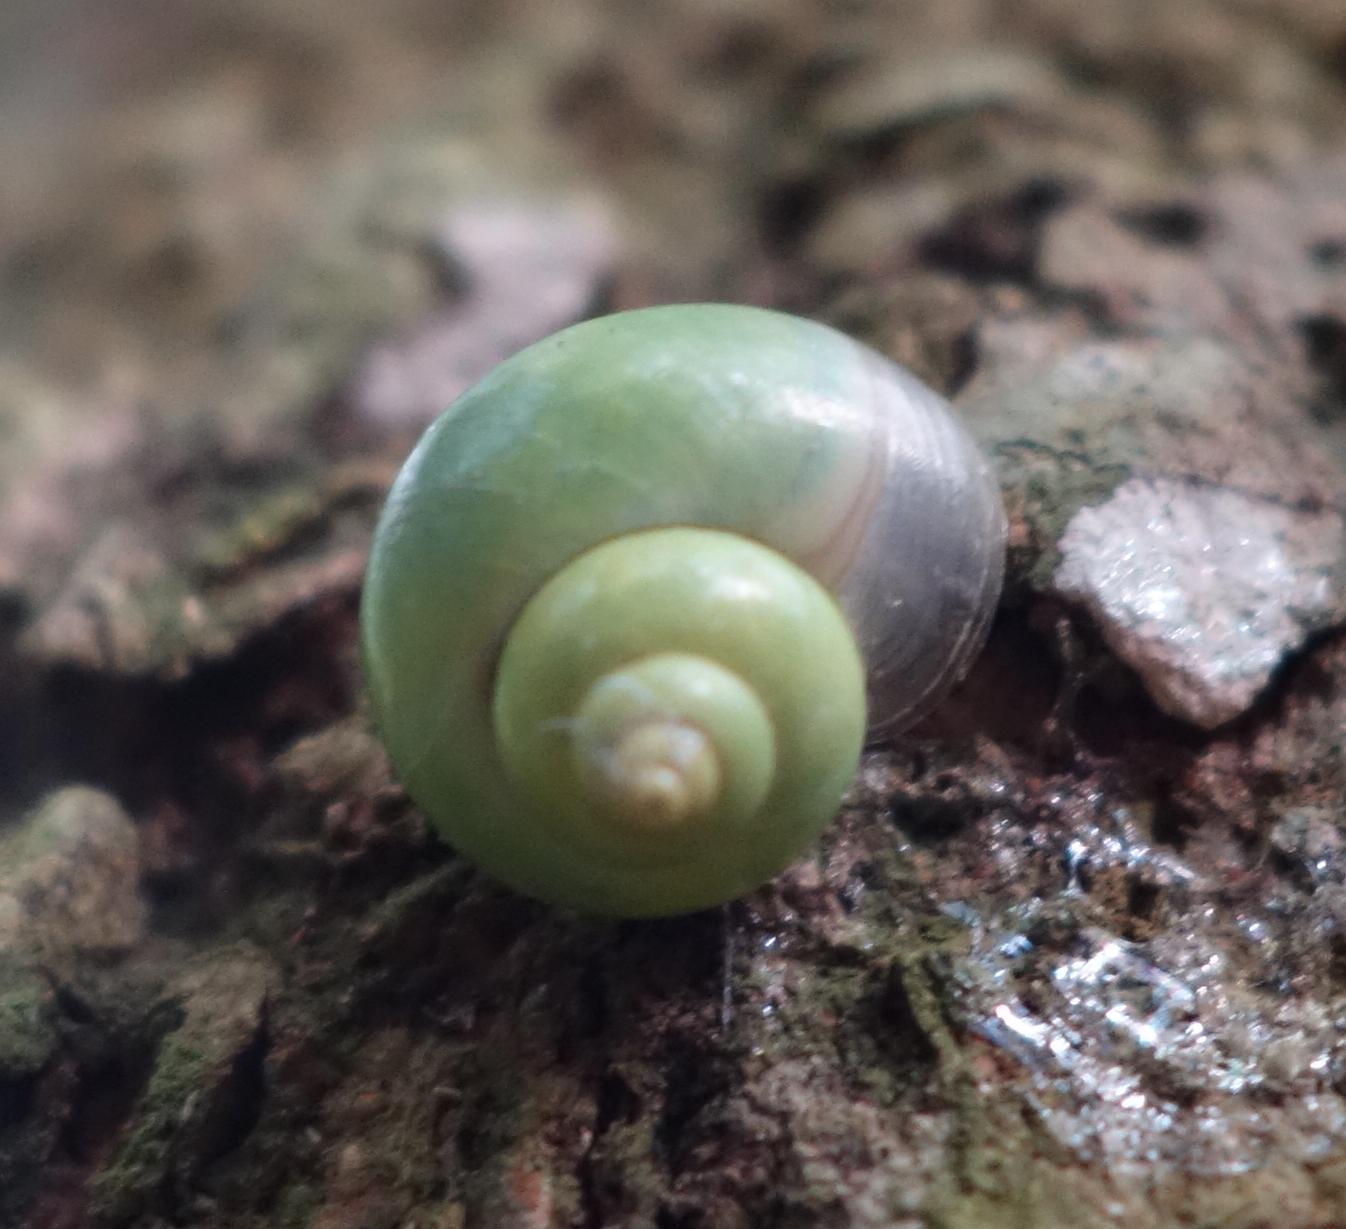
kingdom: Animalia
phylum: Mollusca
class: Gastropoda
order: Architaenioglossa
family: Cyclophoridae
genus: Leptopoma
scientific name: Leptopoma nitidum
